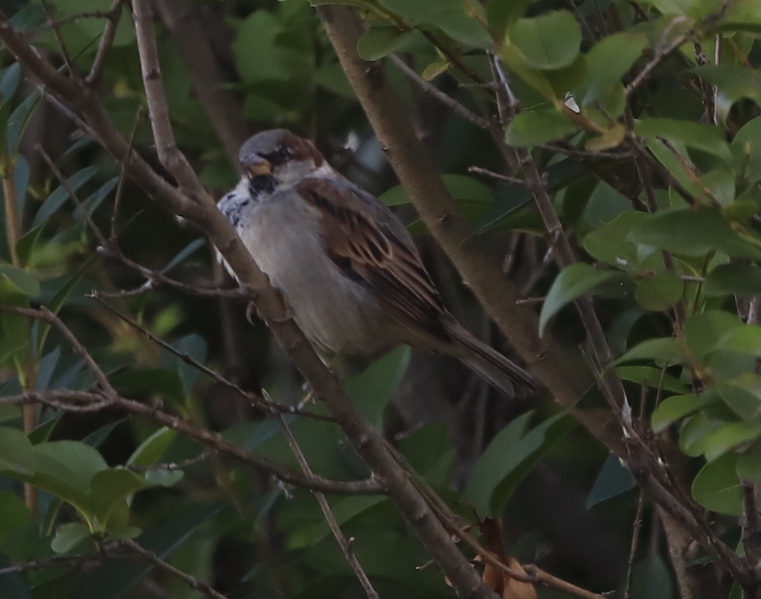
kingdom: Animalia
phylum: Chordata
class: Aves
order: Passeriformes
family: Passeridae
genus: Passer
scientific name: Passer domesticus
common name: House sparrow
